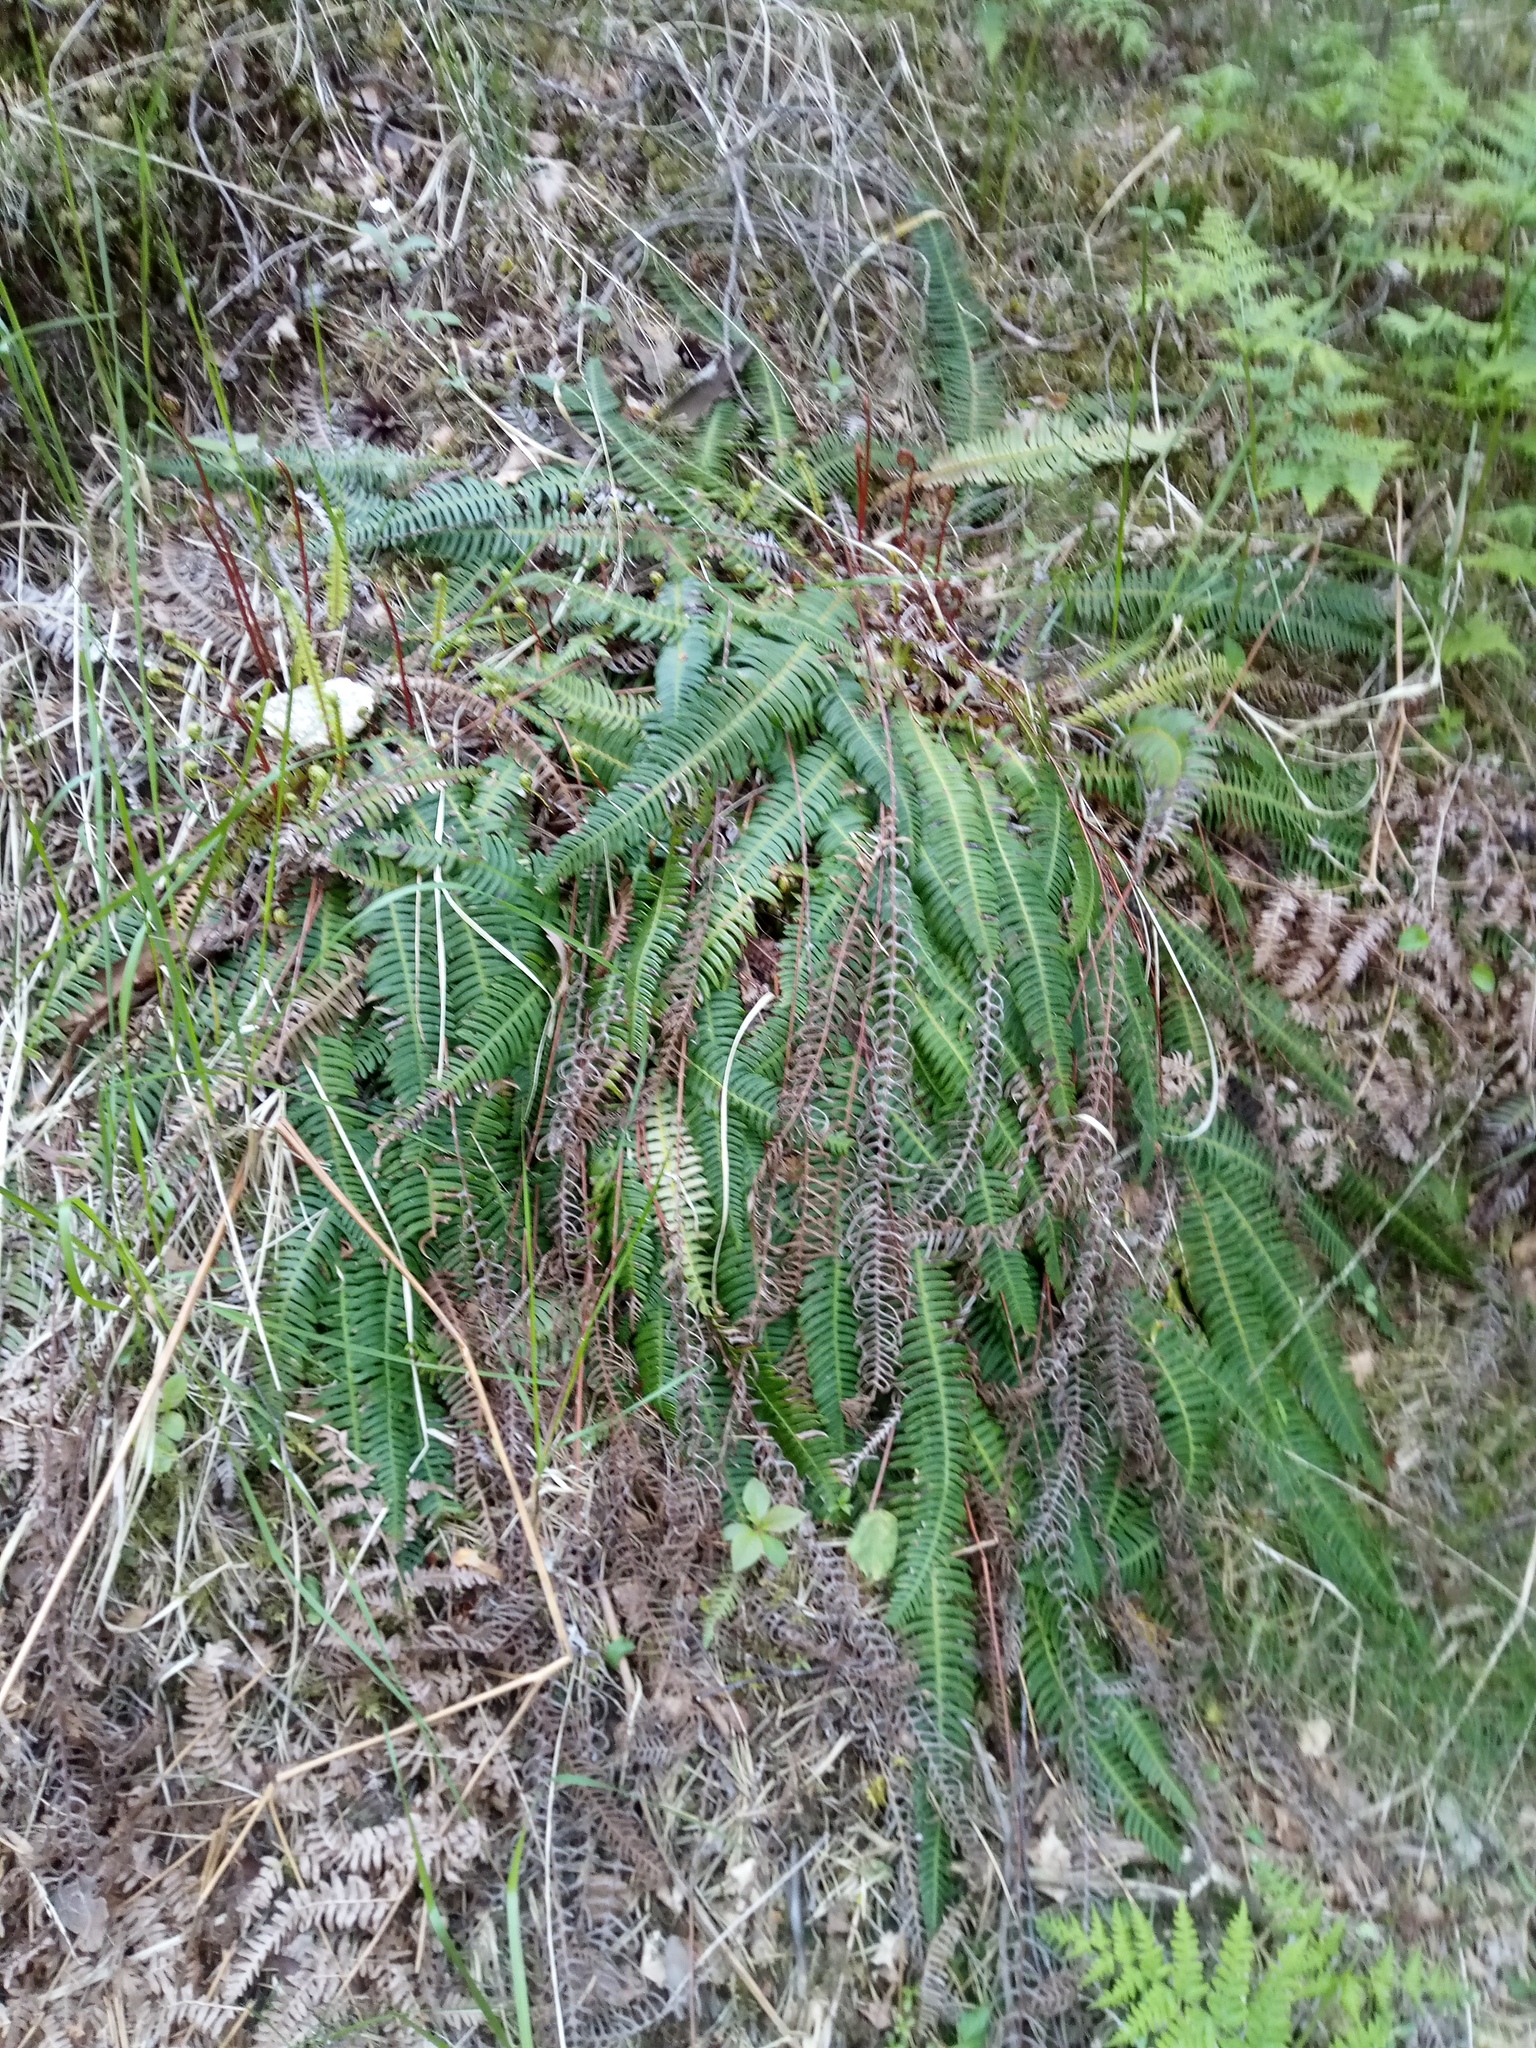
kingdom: Plantae
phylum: Tracheophyta
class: Polypodiopsida
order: Polypodiales
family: Blechnaceae
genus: Struthiopteris
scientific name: Struthiopteris spicant
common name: Deer fern
